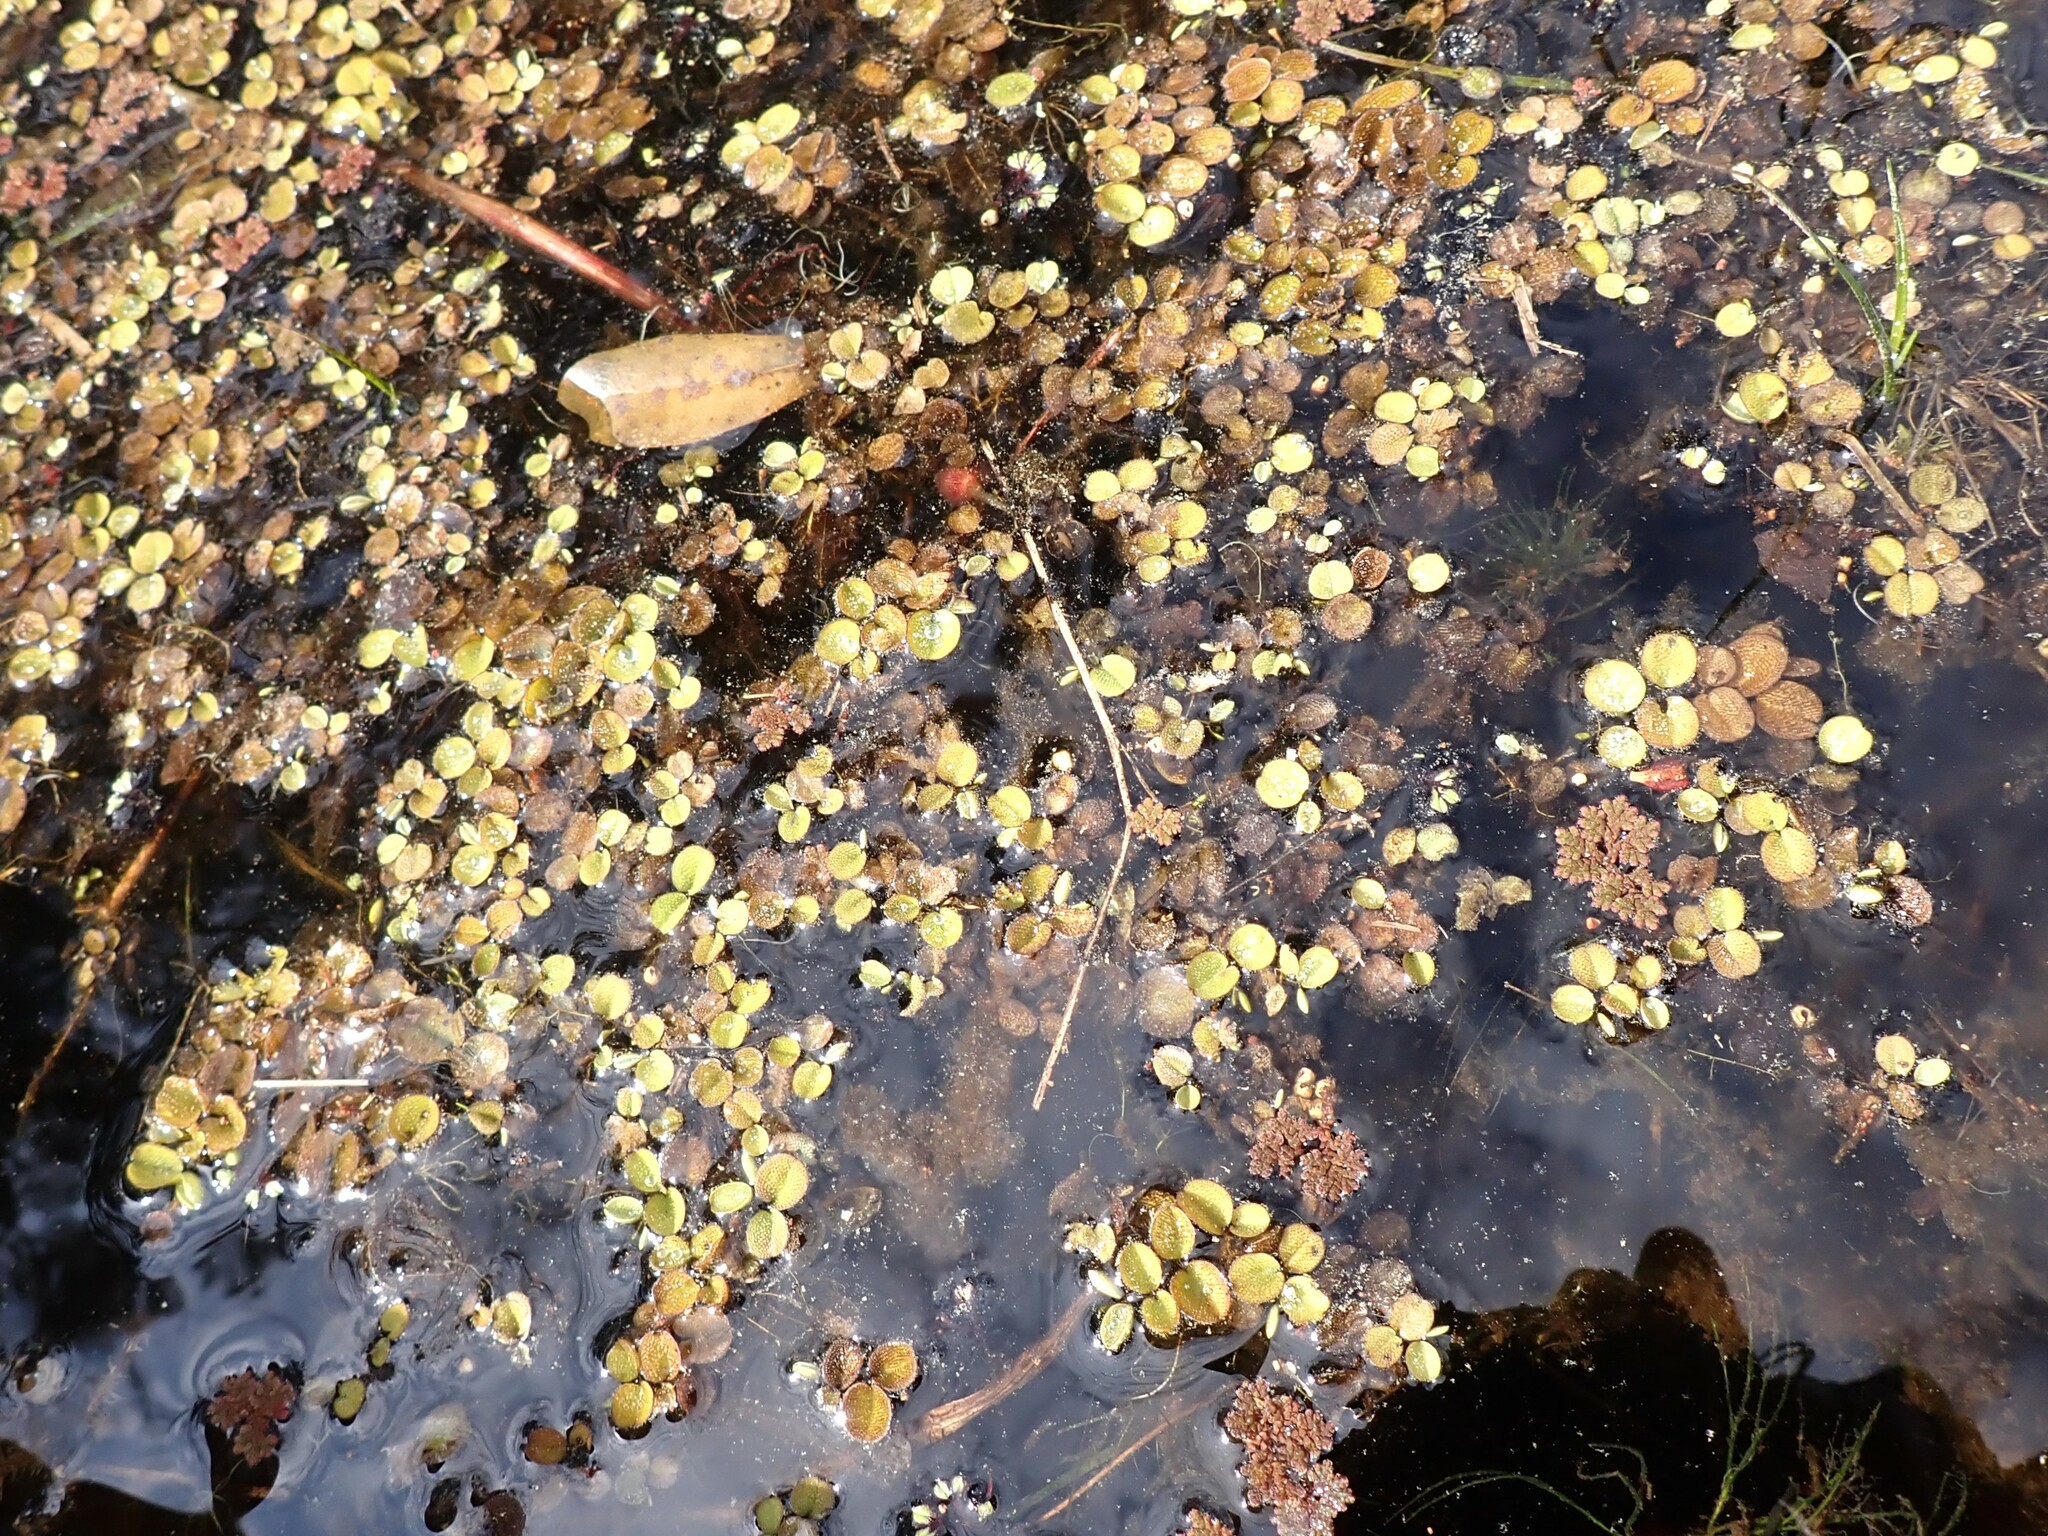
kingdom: Plantae
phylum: Tracheophyta
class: Polypodiopsida
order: Salviniales
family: Salviniaceae
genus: Salvinia
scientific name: Salvinia minima
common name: Water spangles
